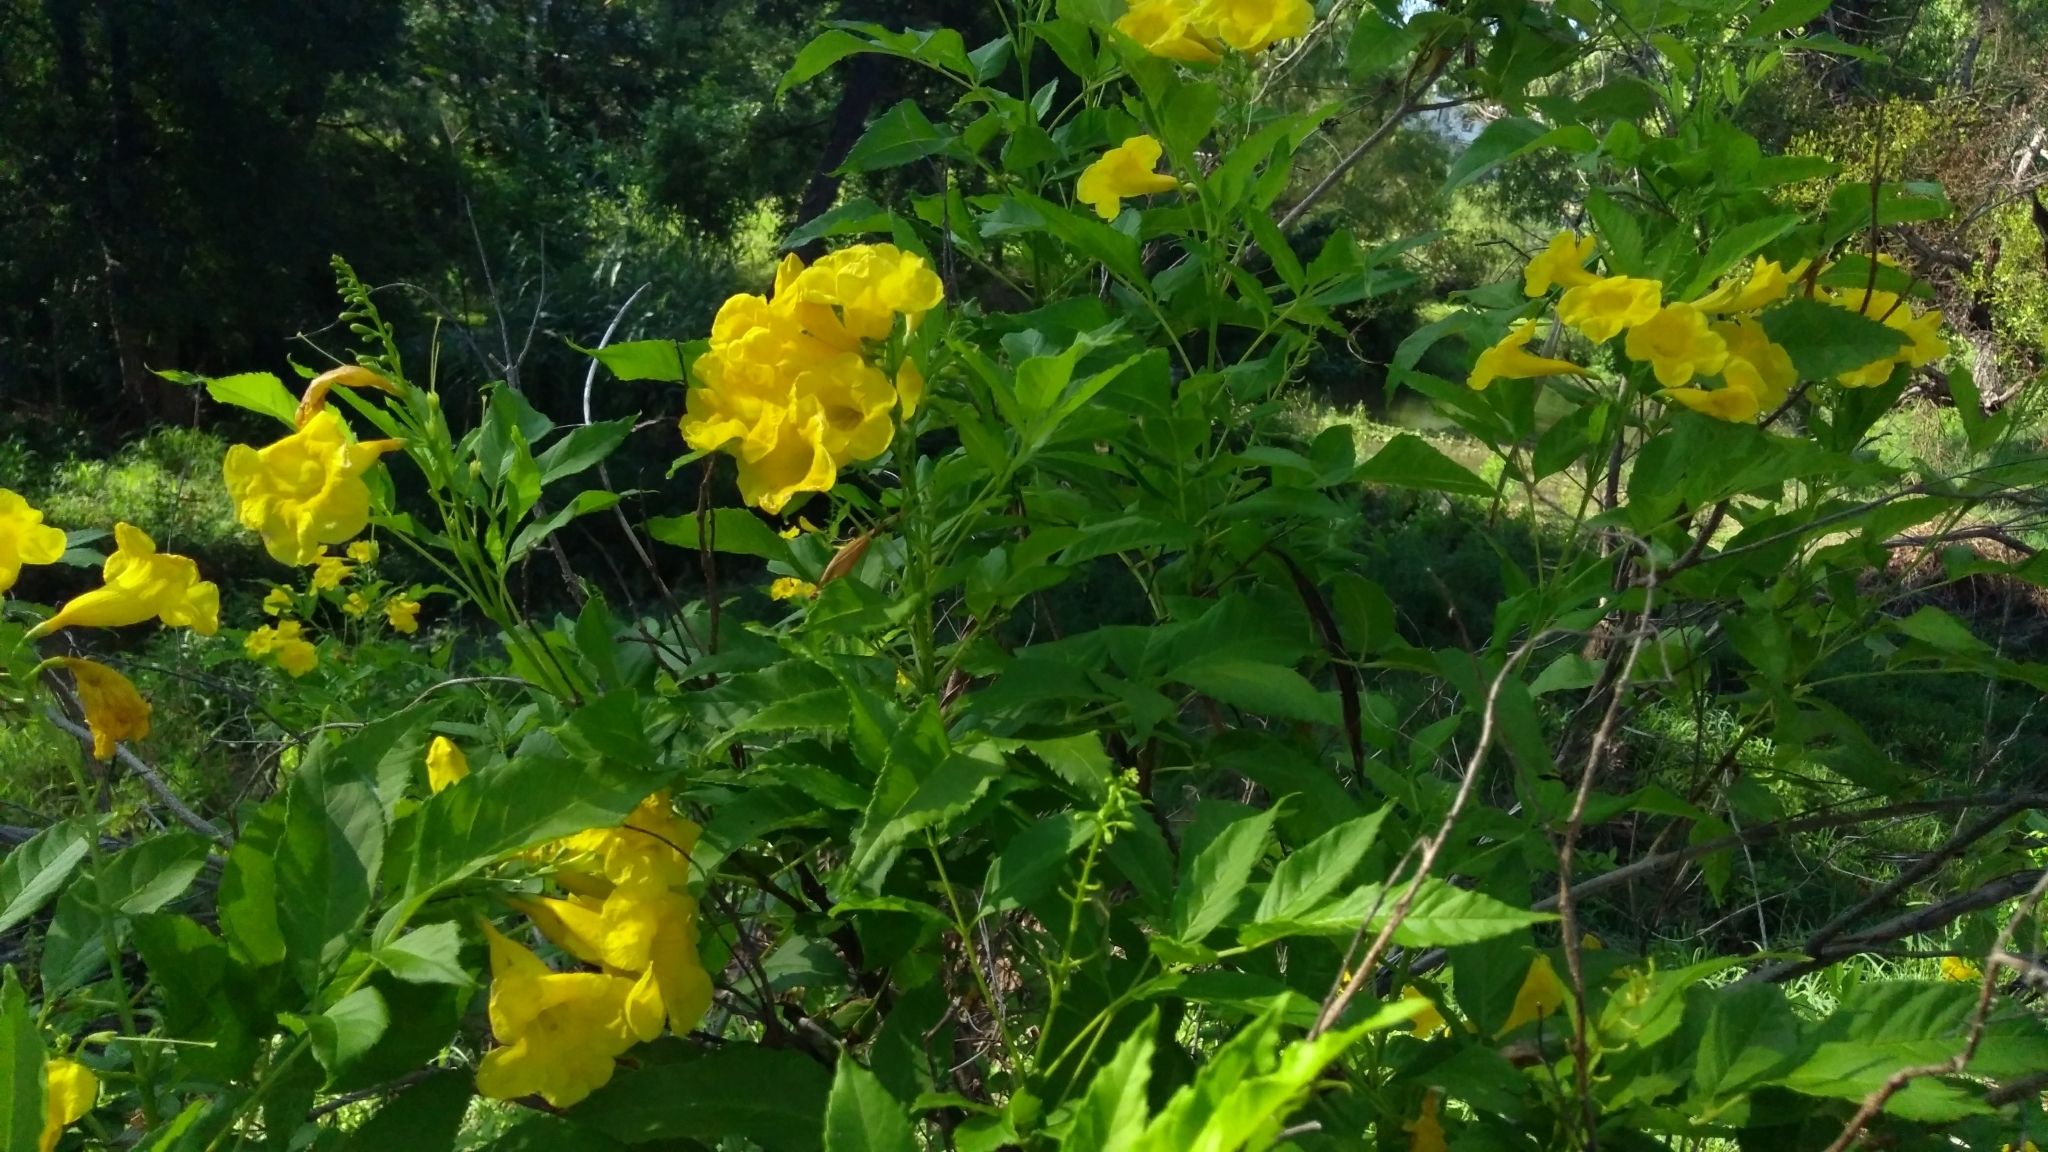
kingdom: Plantae
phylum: Tracheophyta
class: Magnoliopsida
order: Lamiales
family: Bignoniaceae
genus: Tecoma
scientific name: Tecoma stans
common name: Yellow trumpetbush
